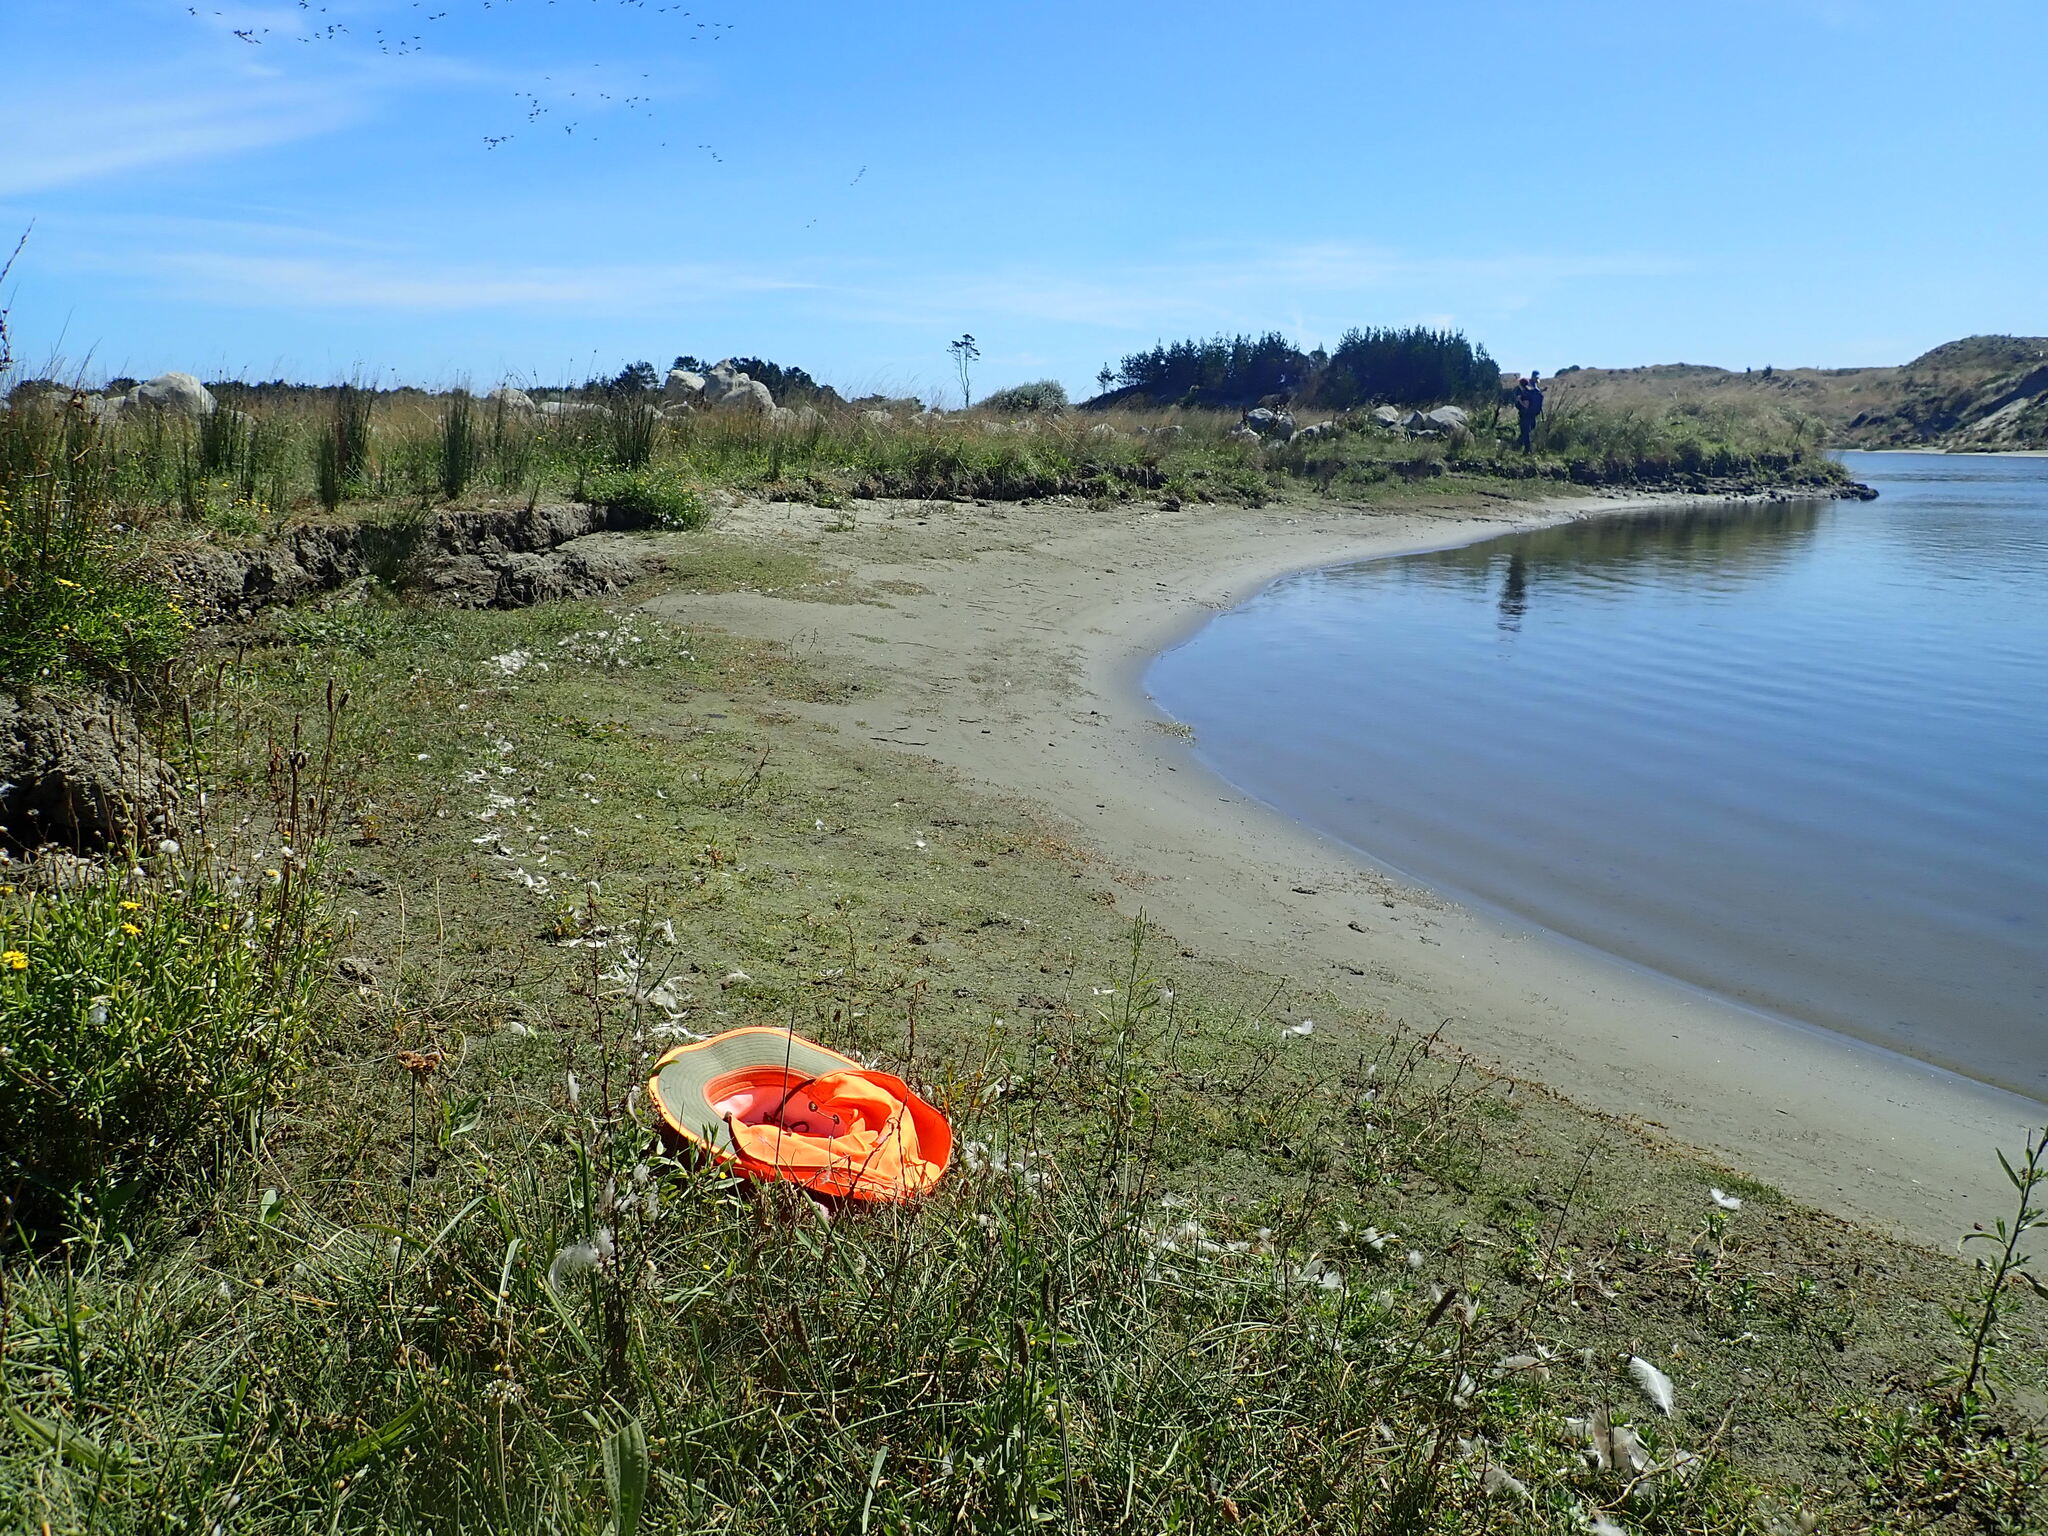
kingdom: Plantae
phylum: Tracheophyta
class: Magnoliopsida
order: Apiales
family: Apiaceae
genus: Lilaeopsis
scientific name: Lilaeopsis novae-zelandiae
